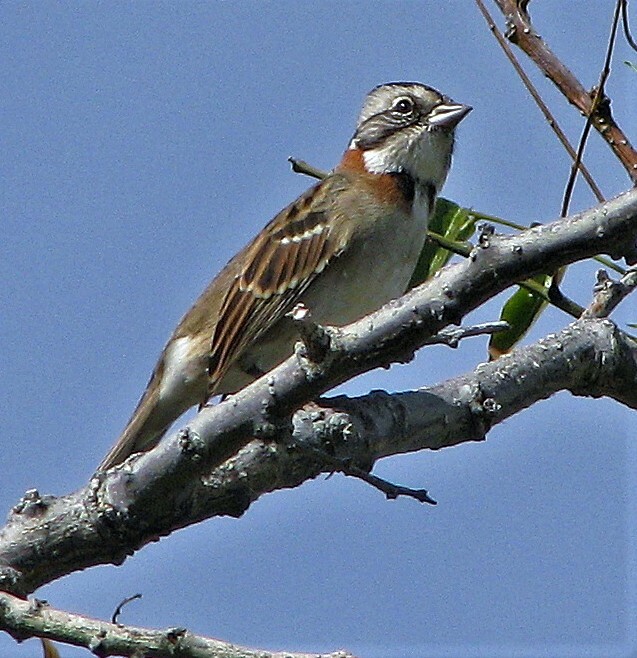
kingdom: Animalia
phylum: Chordata
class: Aves
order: Passeriformes
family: Passerellidae
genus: Zonotrichia
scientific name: Zonotrichia capensis
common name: Rufous-collared sparrow
